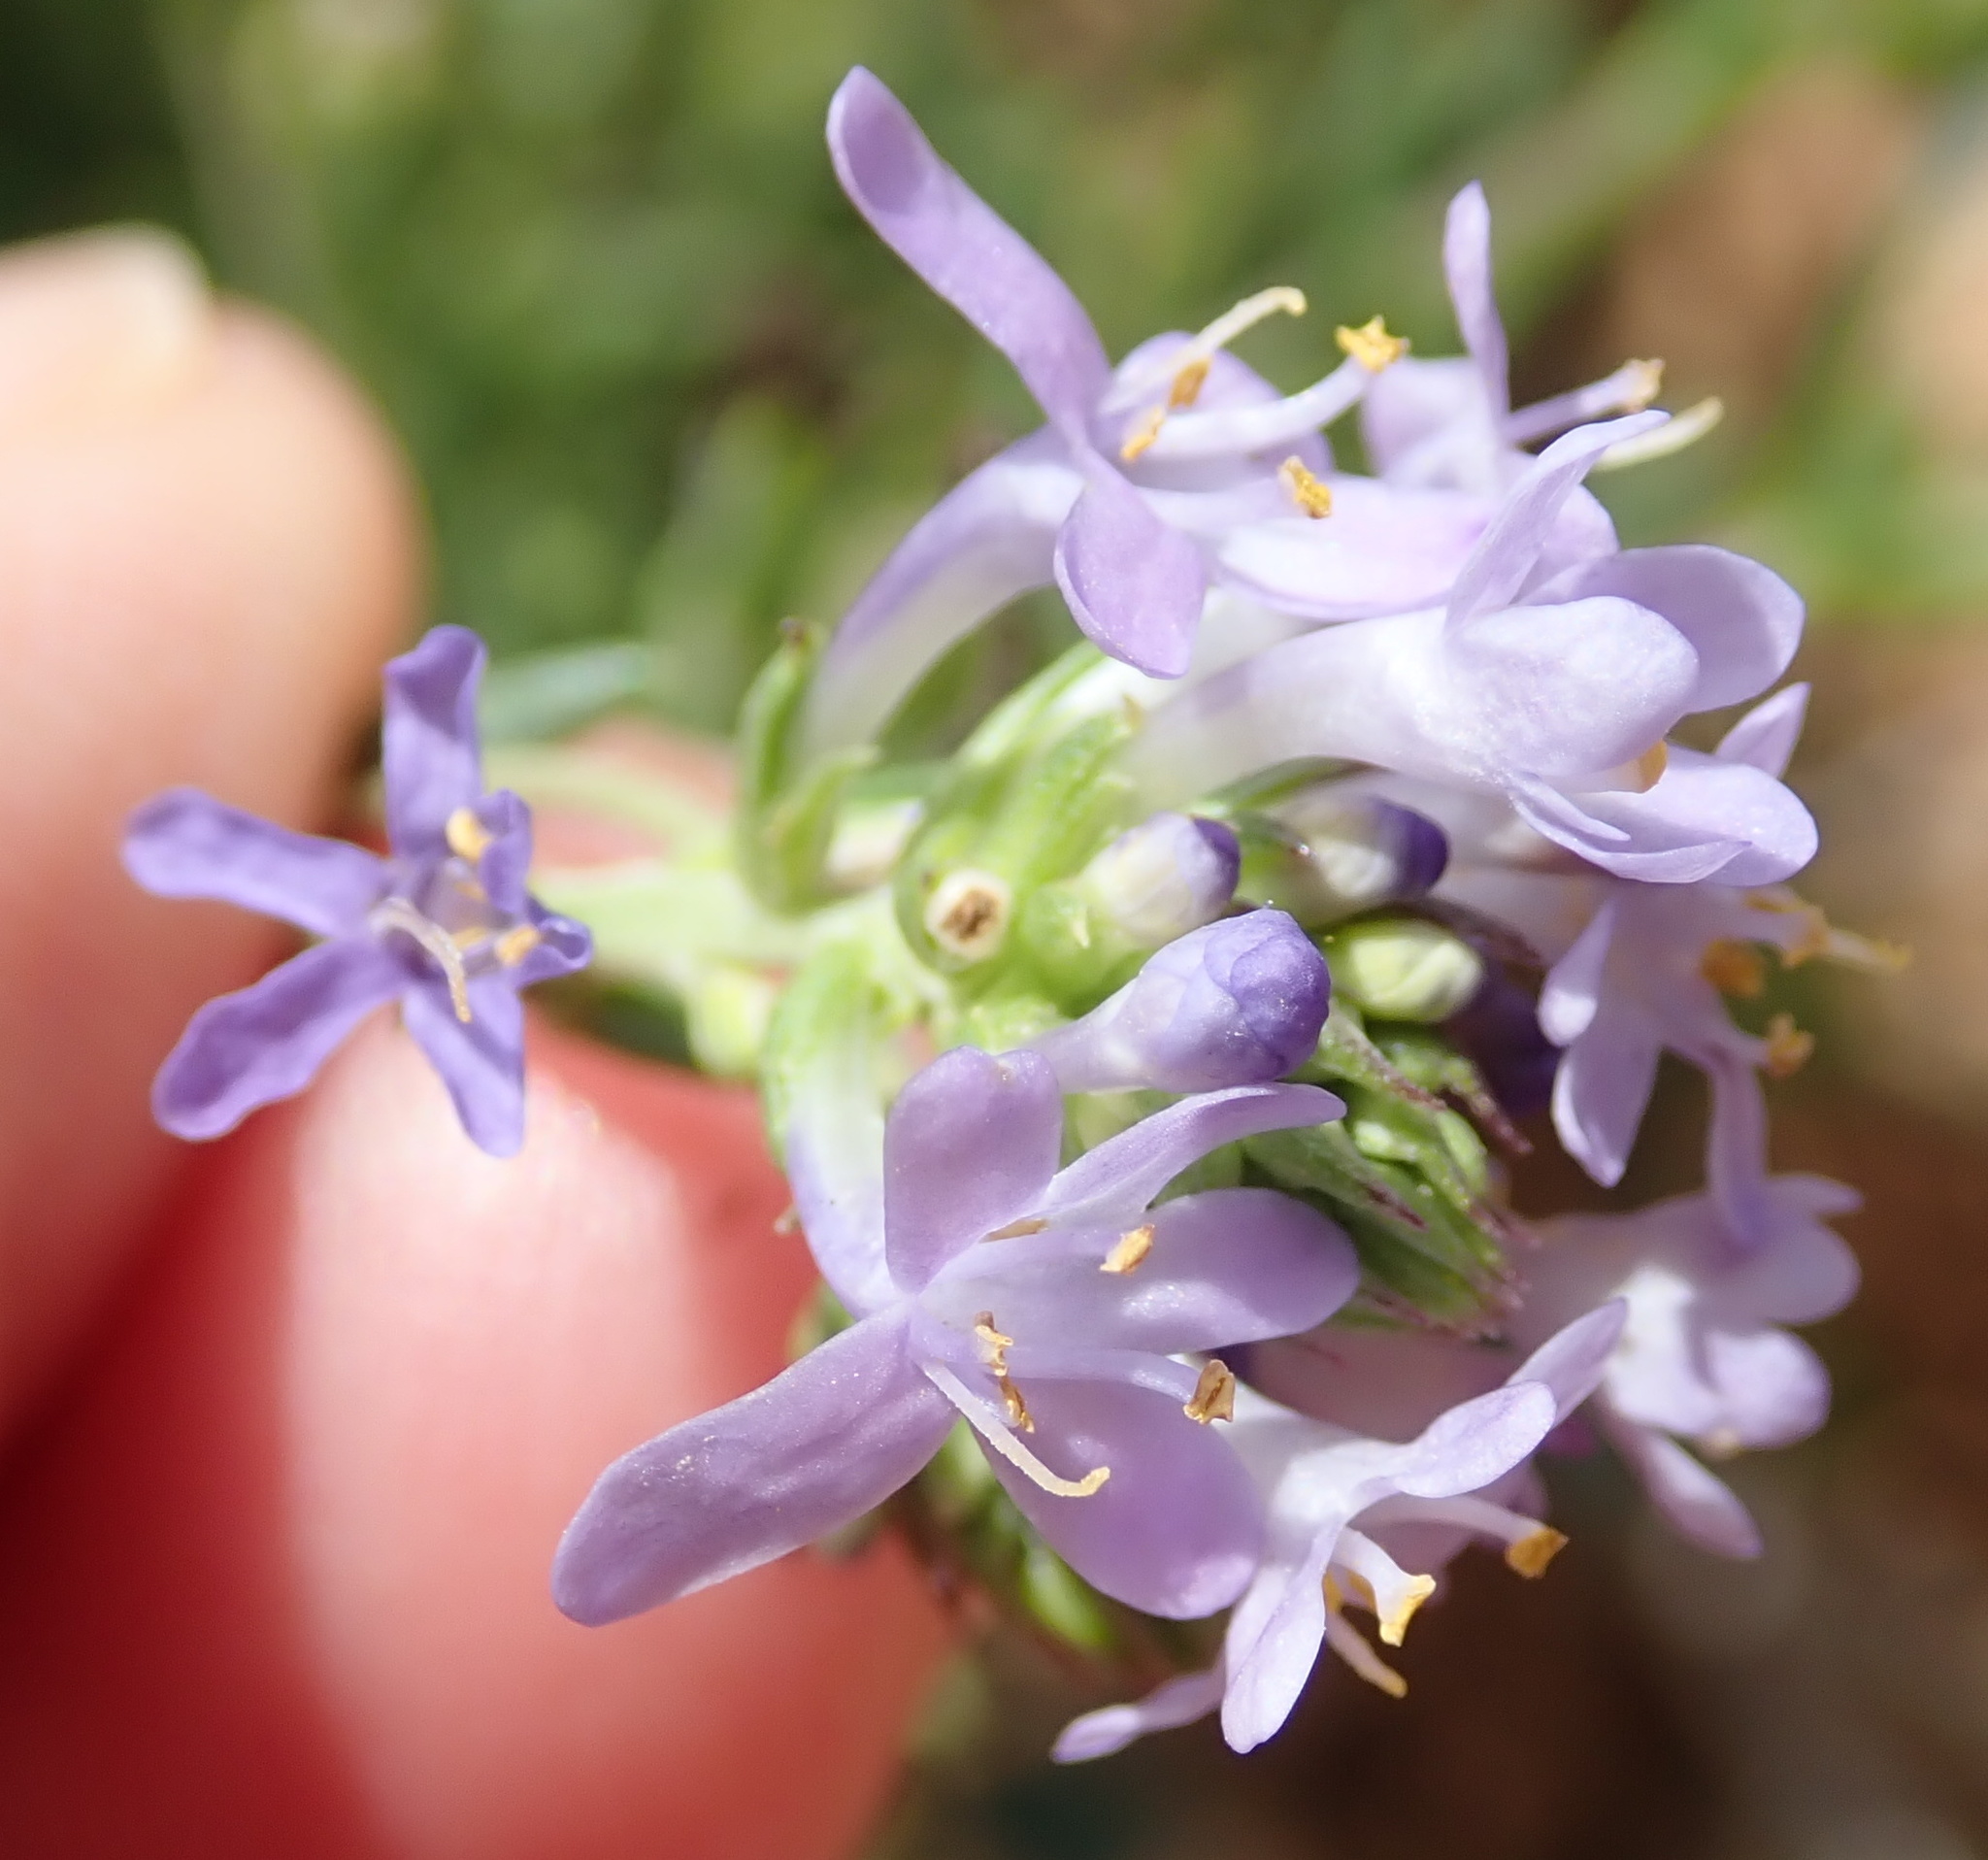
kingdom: Plantae
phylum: Tracheophyta
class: Magnoliopsida
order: Lamiales
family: Scrophulariaceae
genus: Selago
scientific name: Selago canescens
